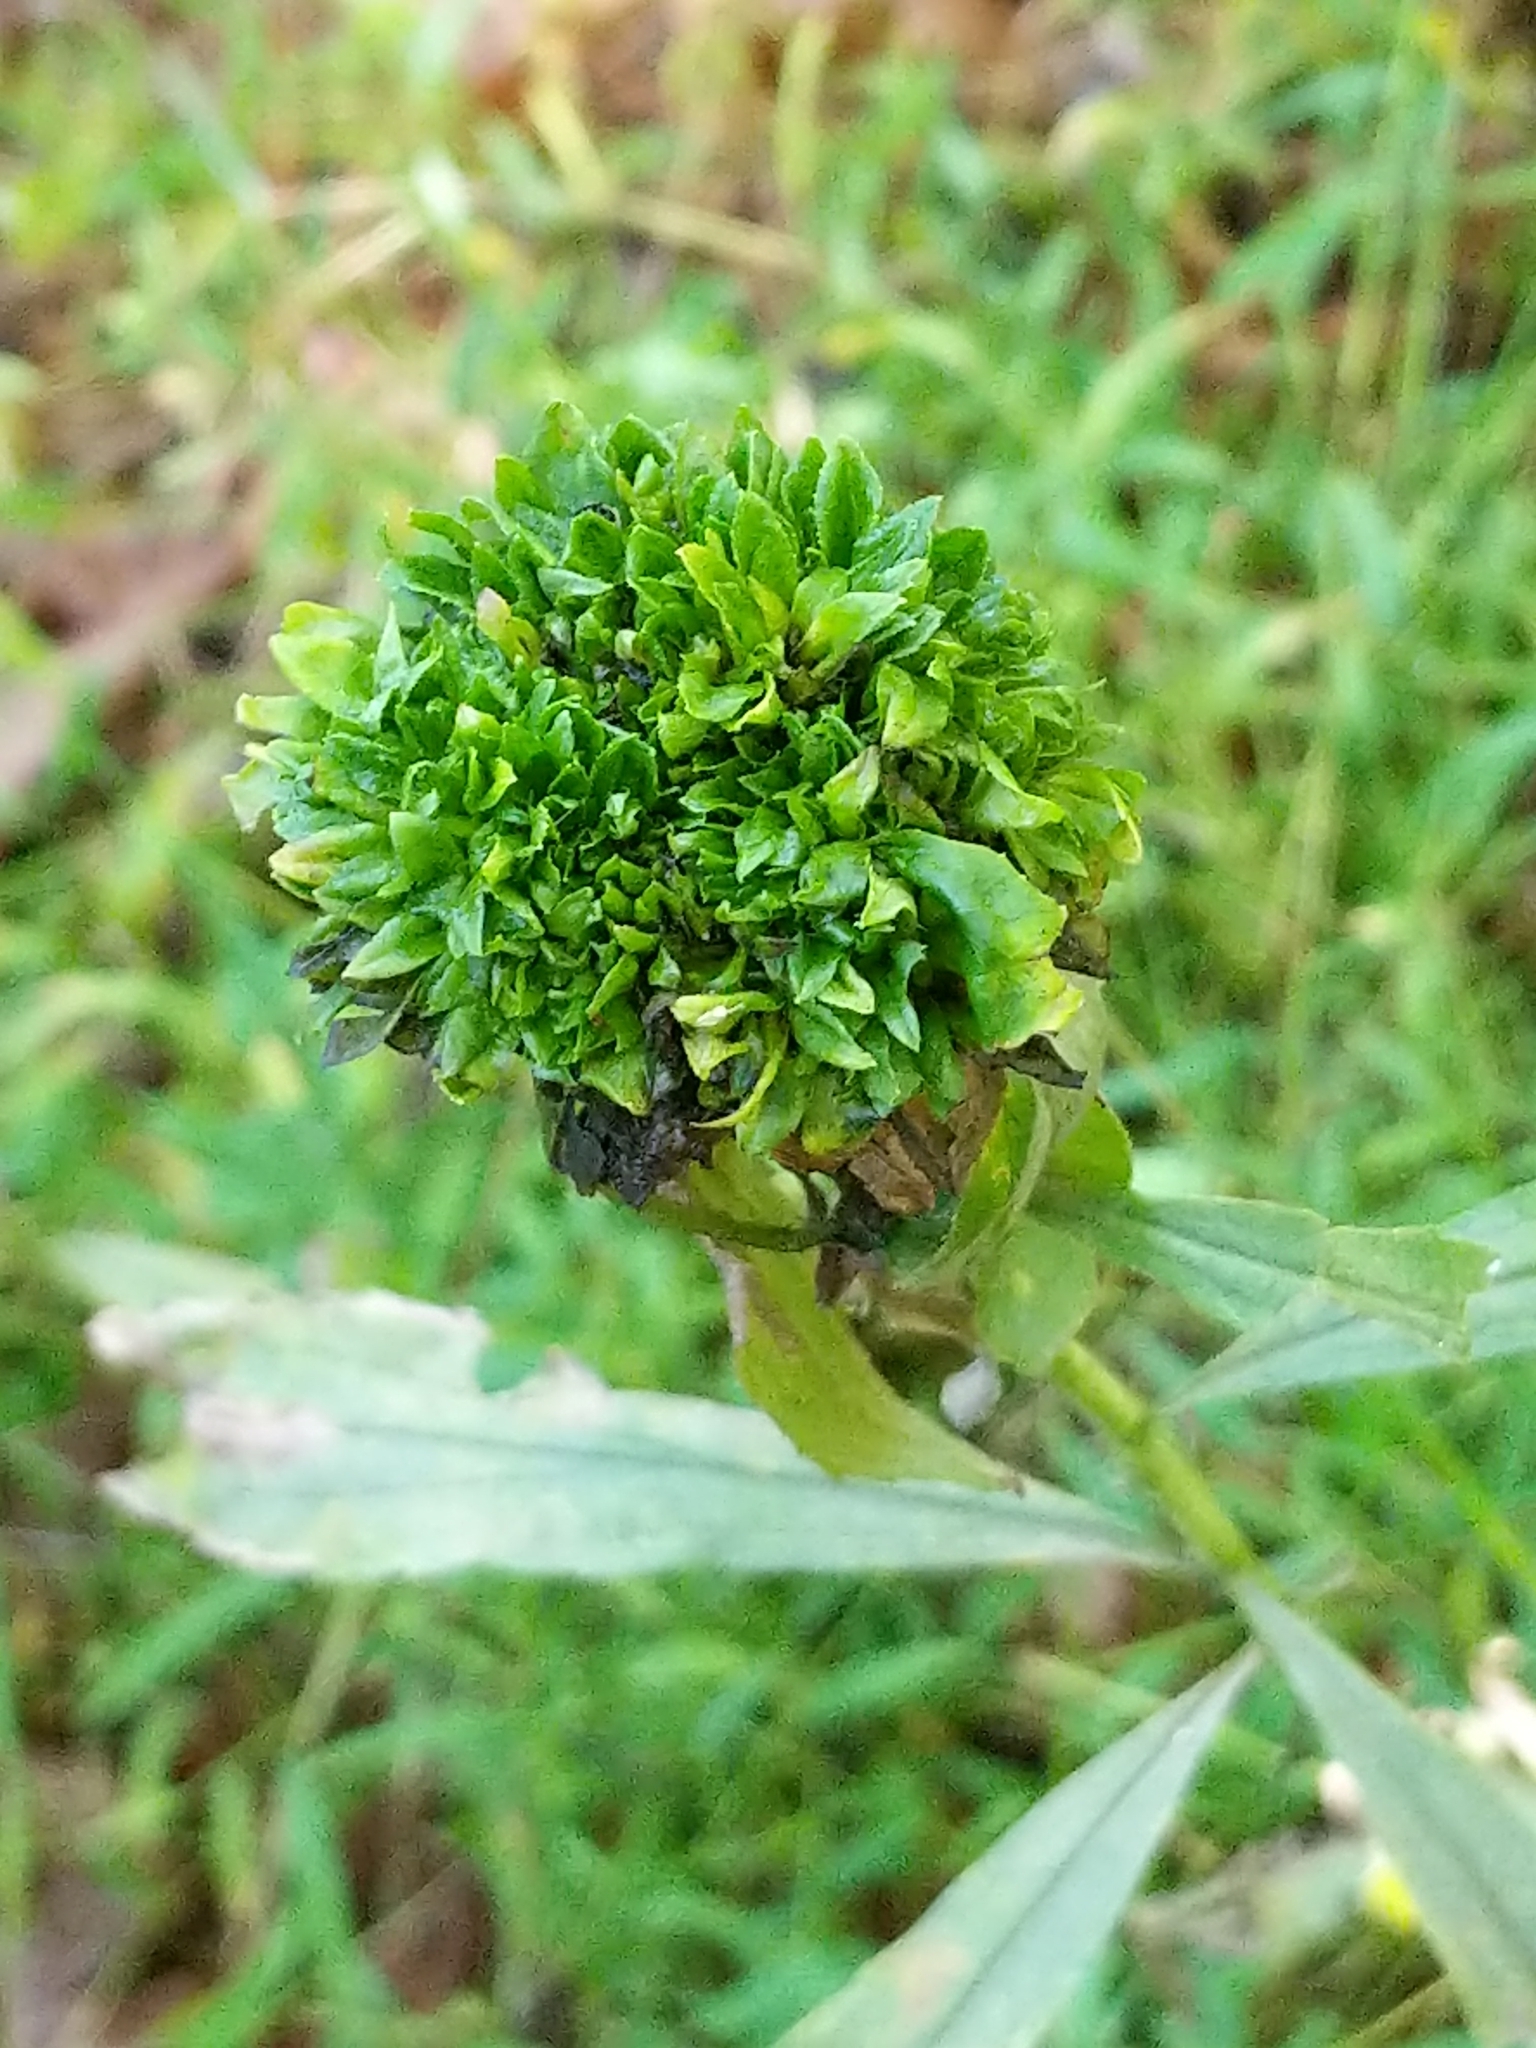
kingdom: Animalia
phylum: Arthropoda
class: Insecta
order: Diptera
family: Cecidomyiidae
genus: Rhopalomyia
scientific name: Rhopalomyia capitata
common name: Giant goldenrod bunch gall midge
